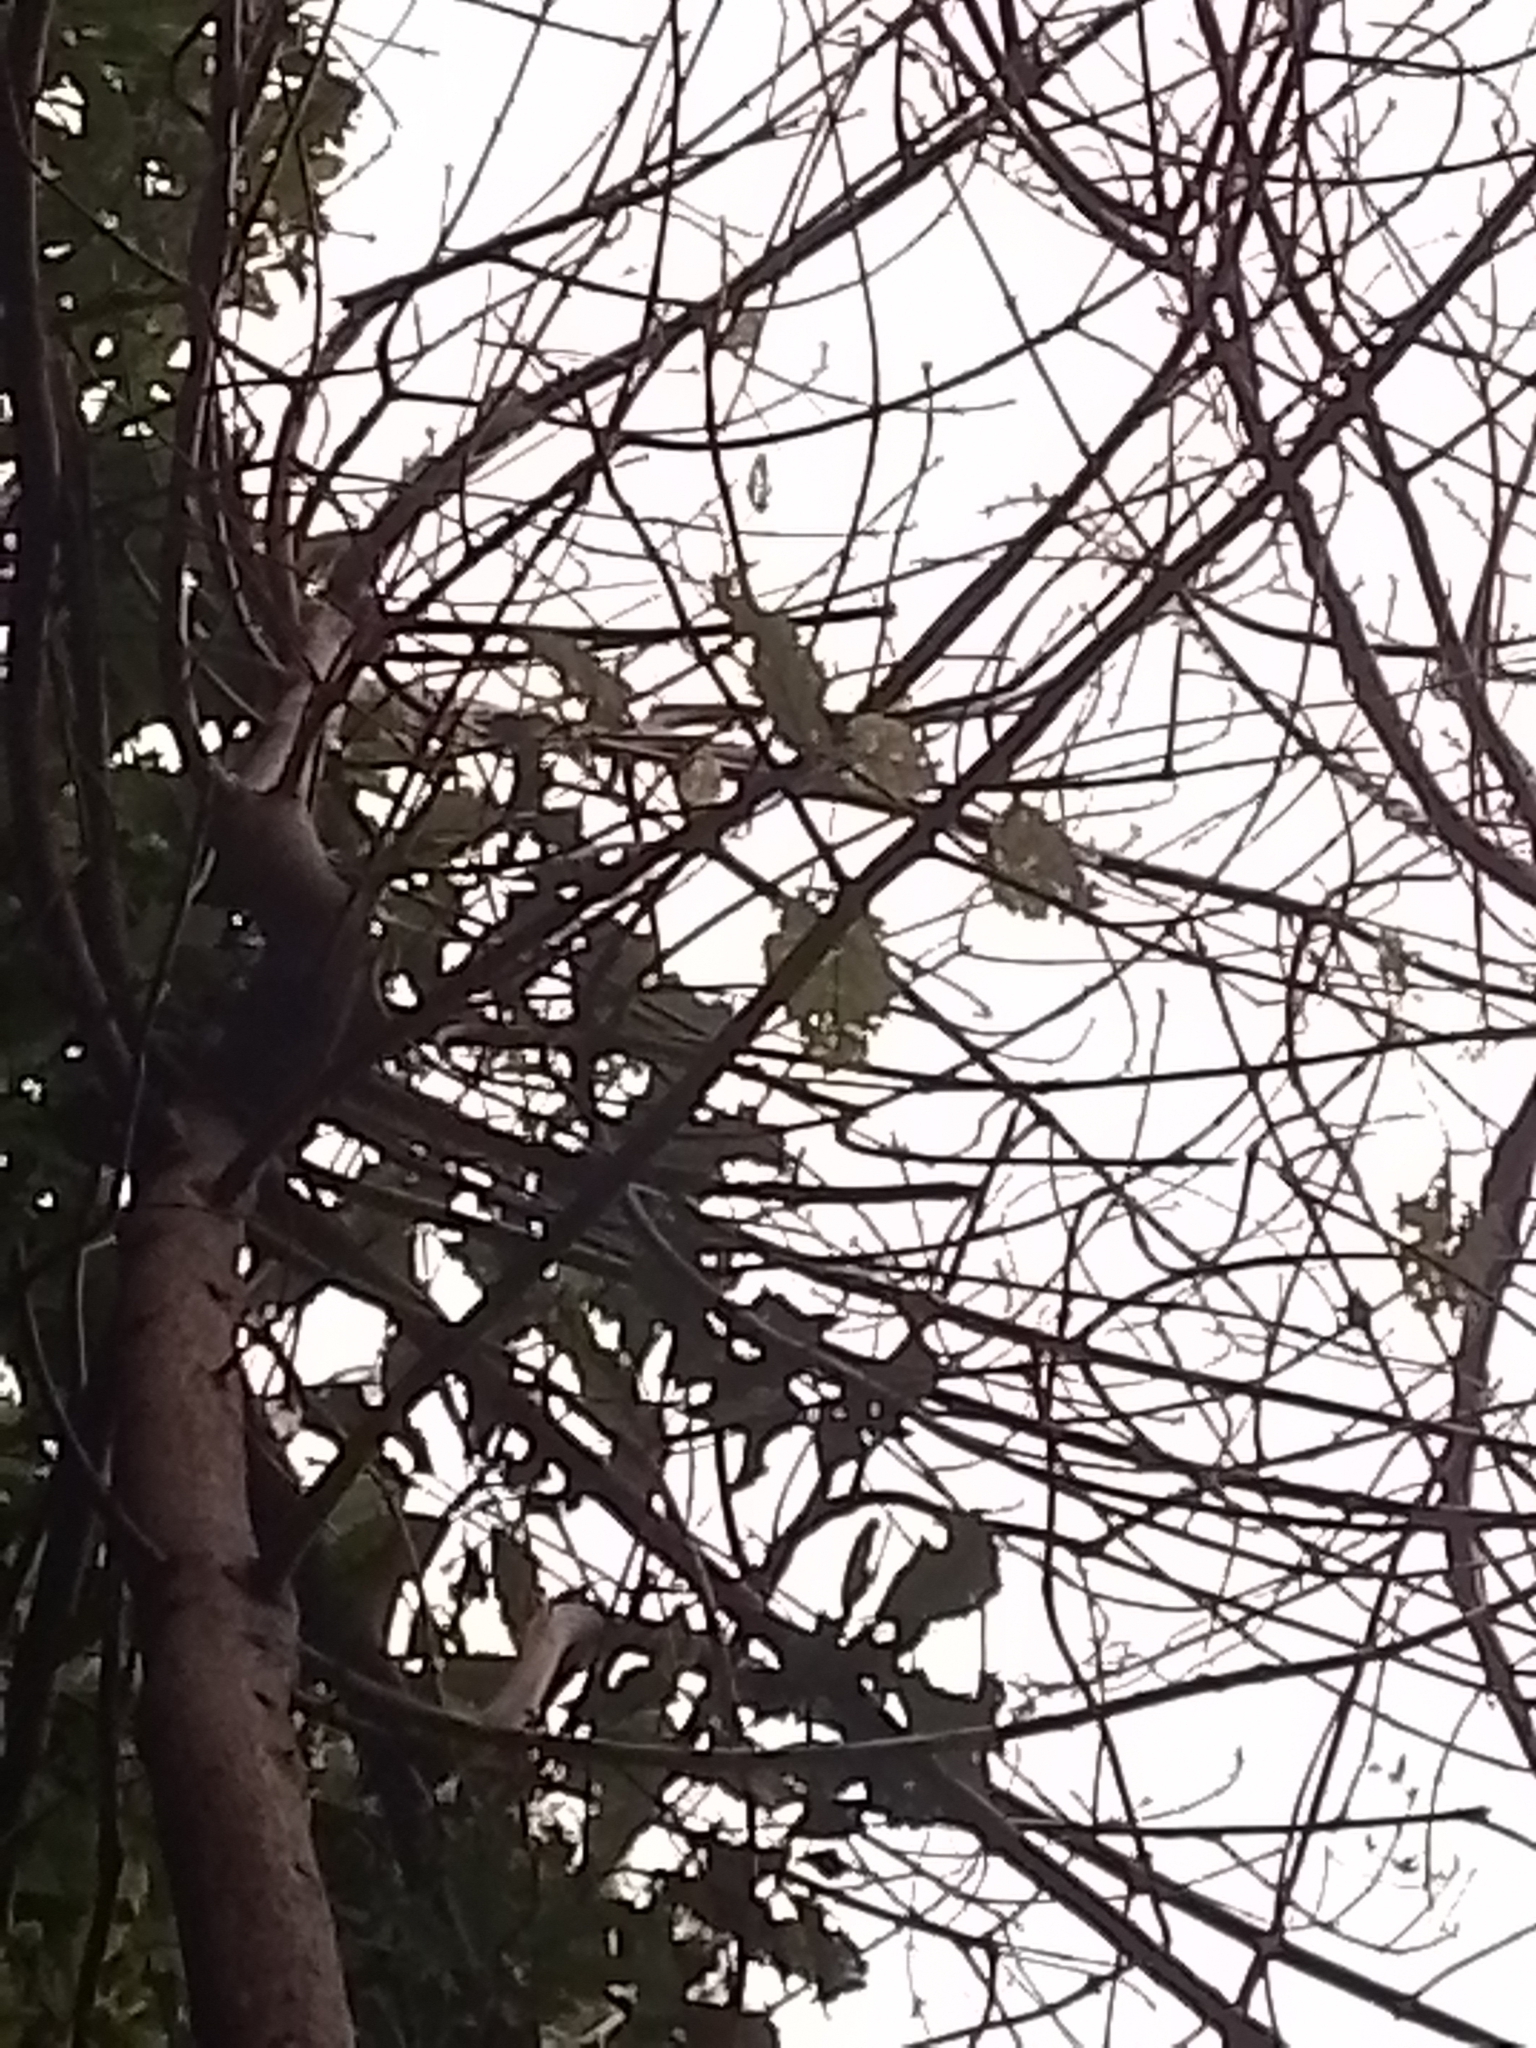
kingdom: Plantae
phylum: Tracheophyta
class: Magnoliopsida
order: Oxalidales
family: Elaeocarpaceae
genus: Aristotelia
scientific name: Aristotelia serrata
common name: New zealand wineberry
